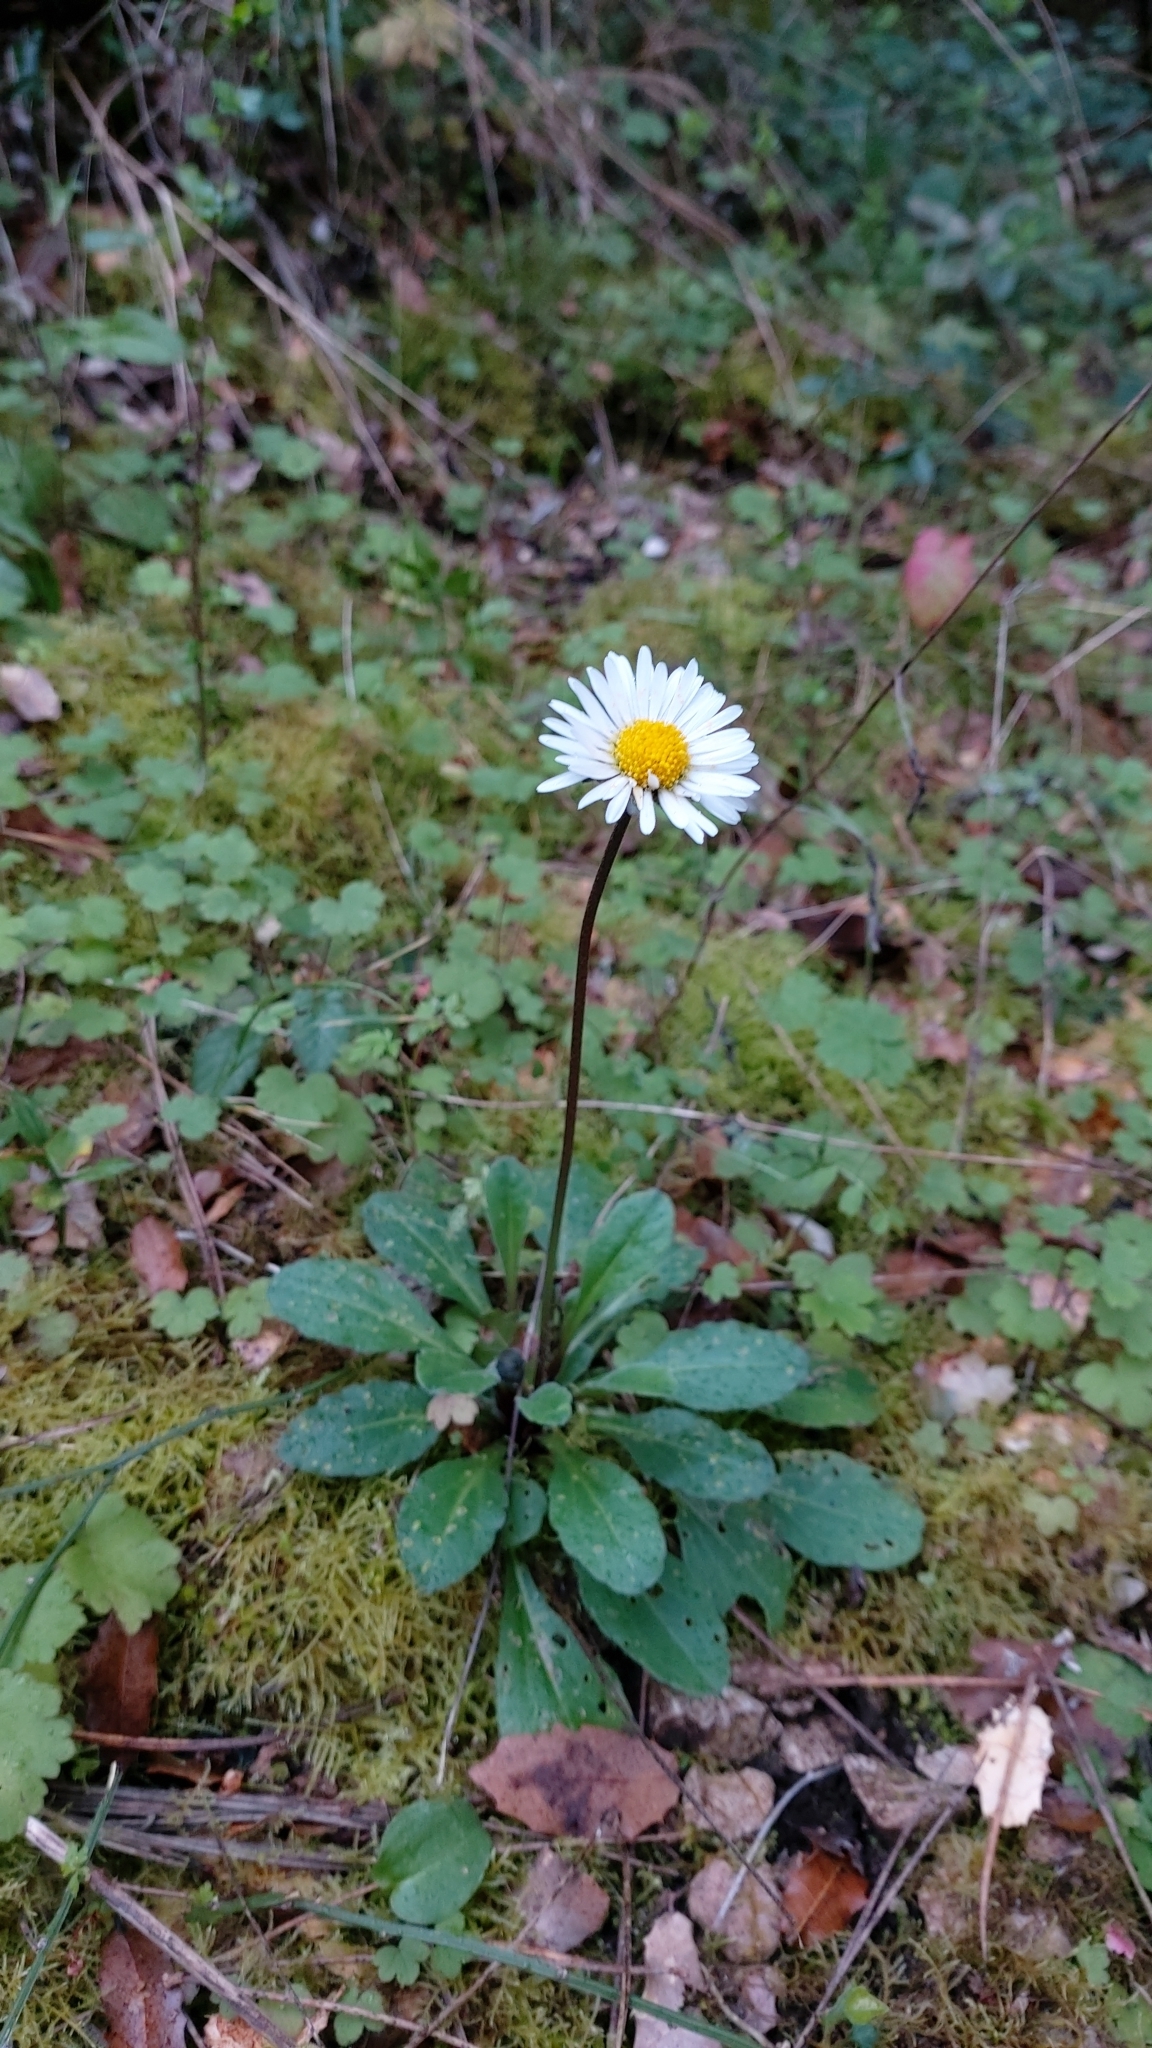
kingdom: Plantae
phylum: Tracheophyta
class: Magnoliopsida
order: Asterales
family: Asteraceae
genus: Bellis
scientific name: Bellis sylvestris
